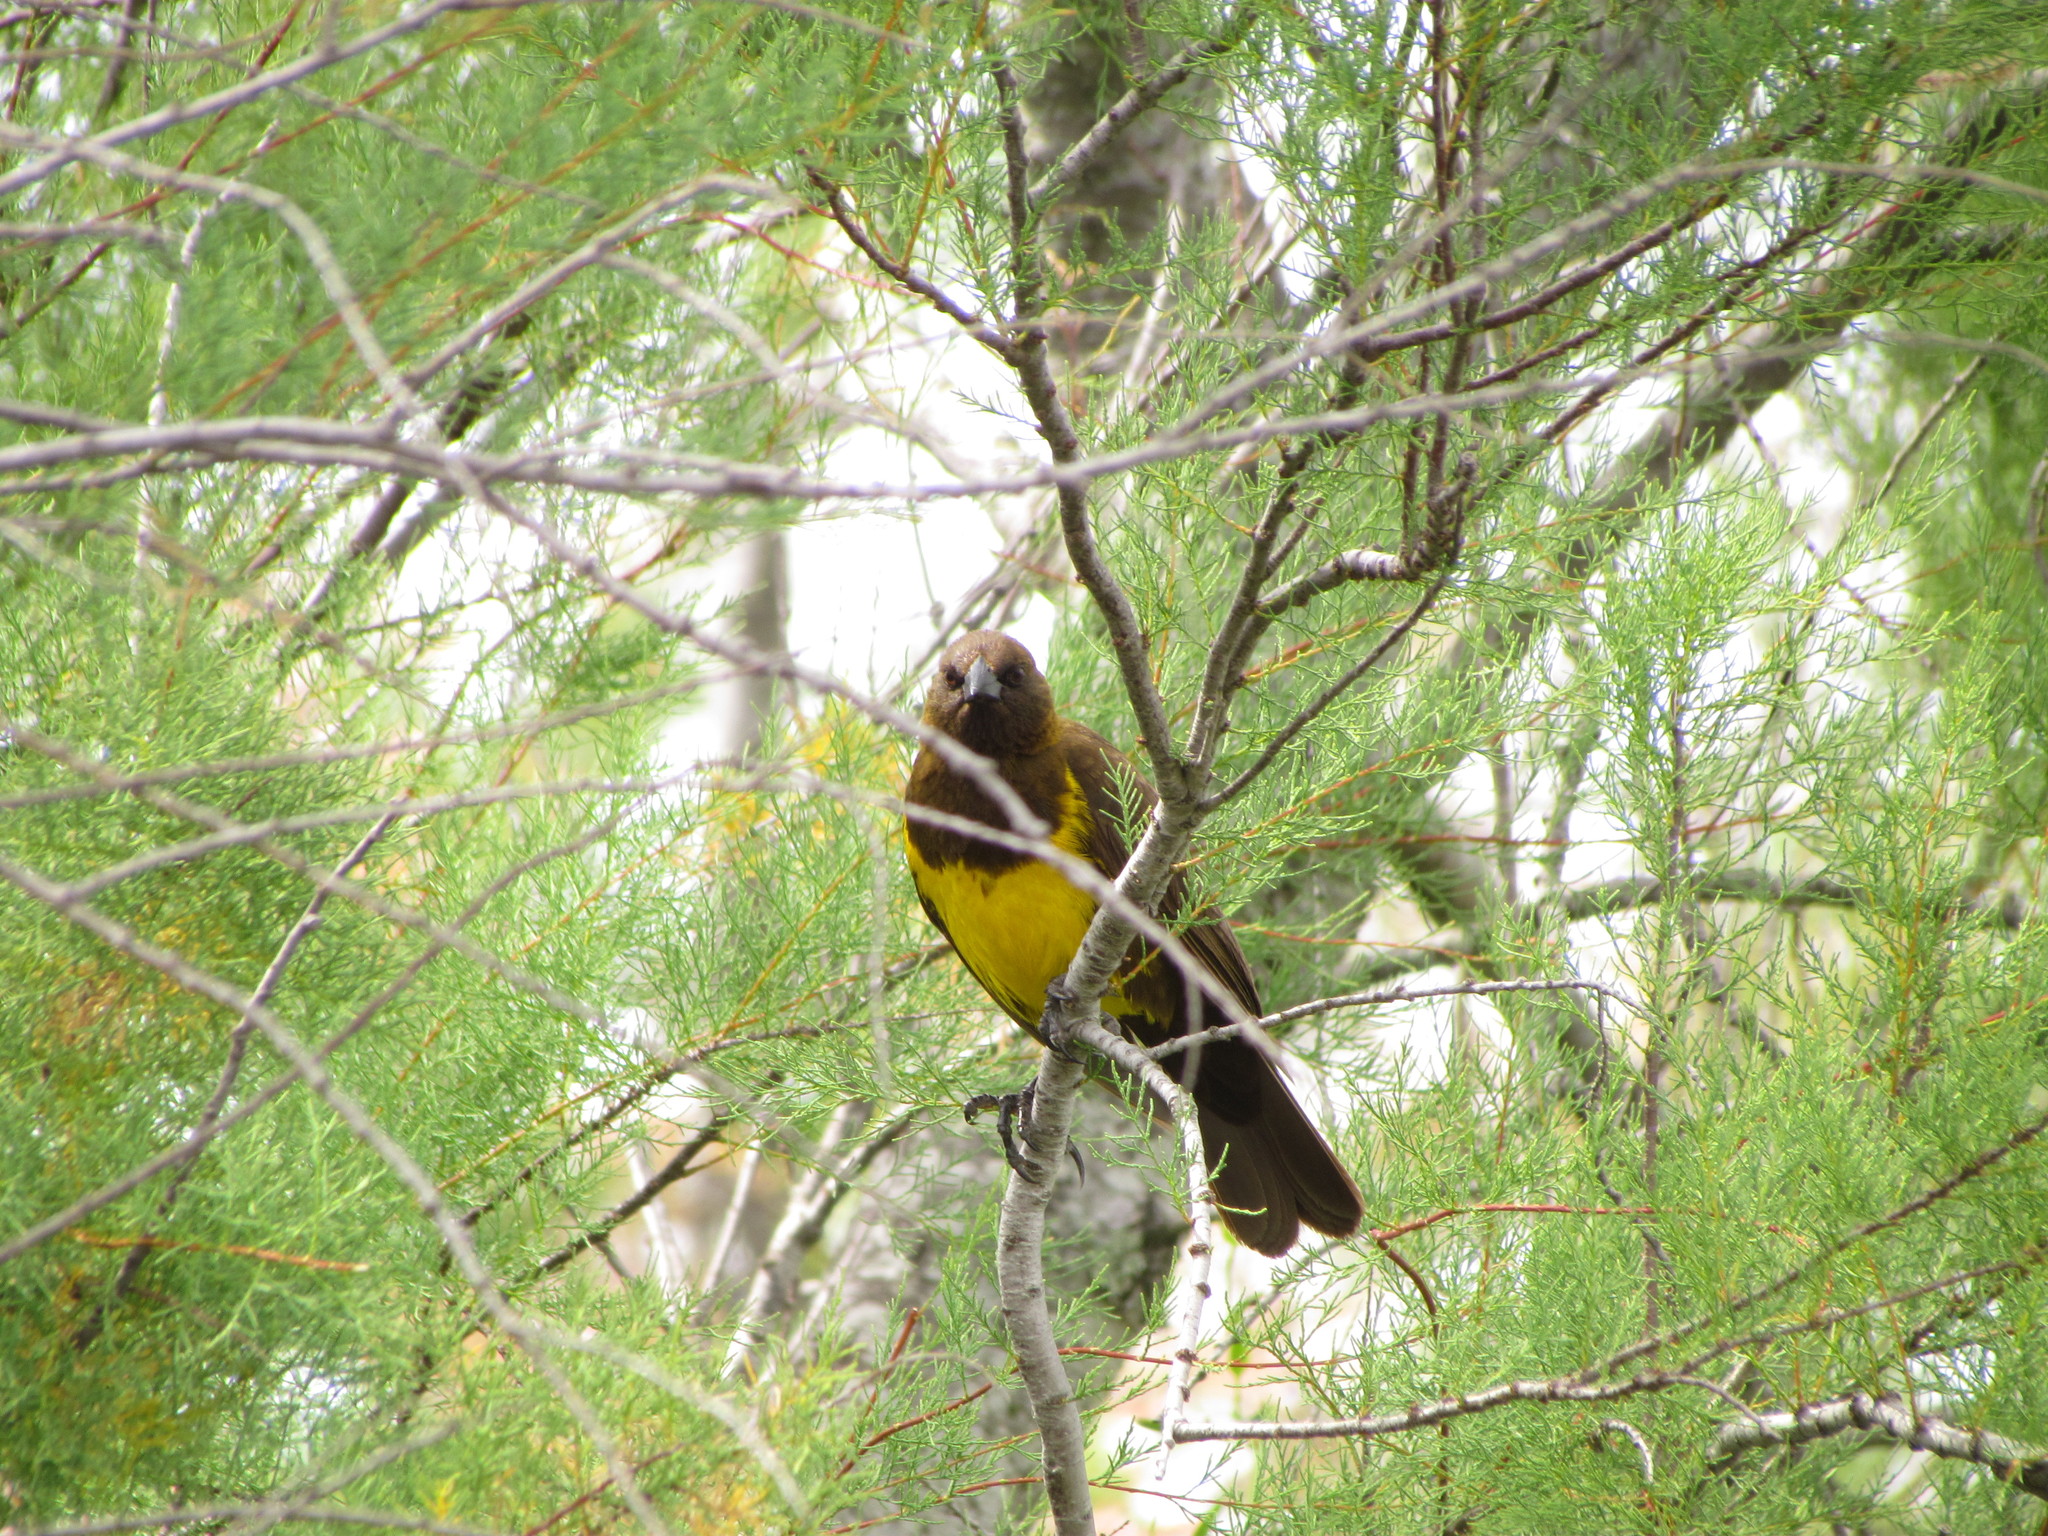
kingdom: Animalia
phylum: Chordata
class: Aves
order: Passeriformes
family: Icteridae
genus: Pseudoleistes
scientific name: Pseudoleistes virescens
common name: Brown-and-yellow marshbird
